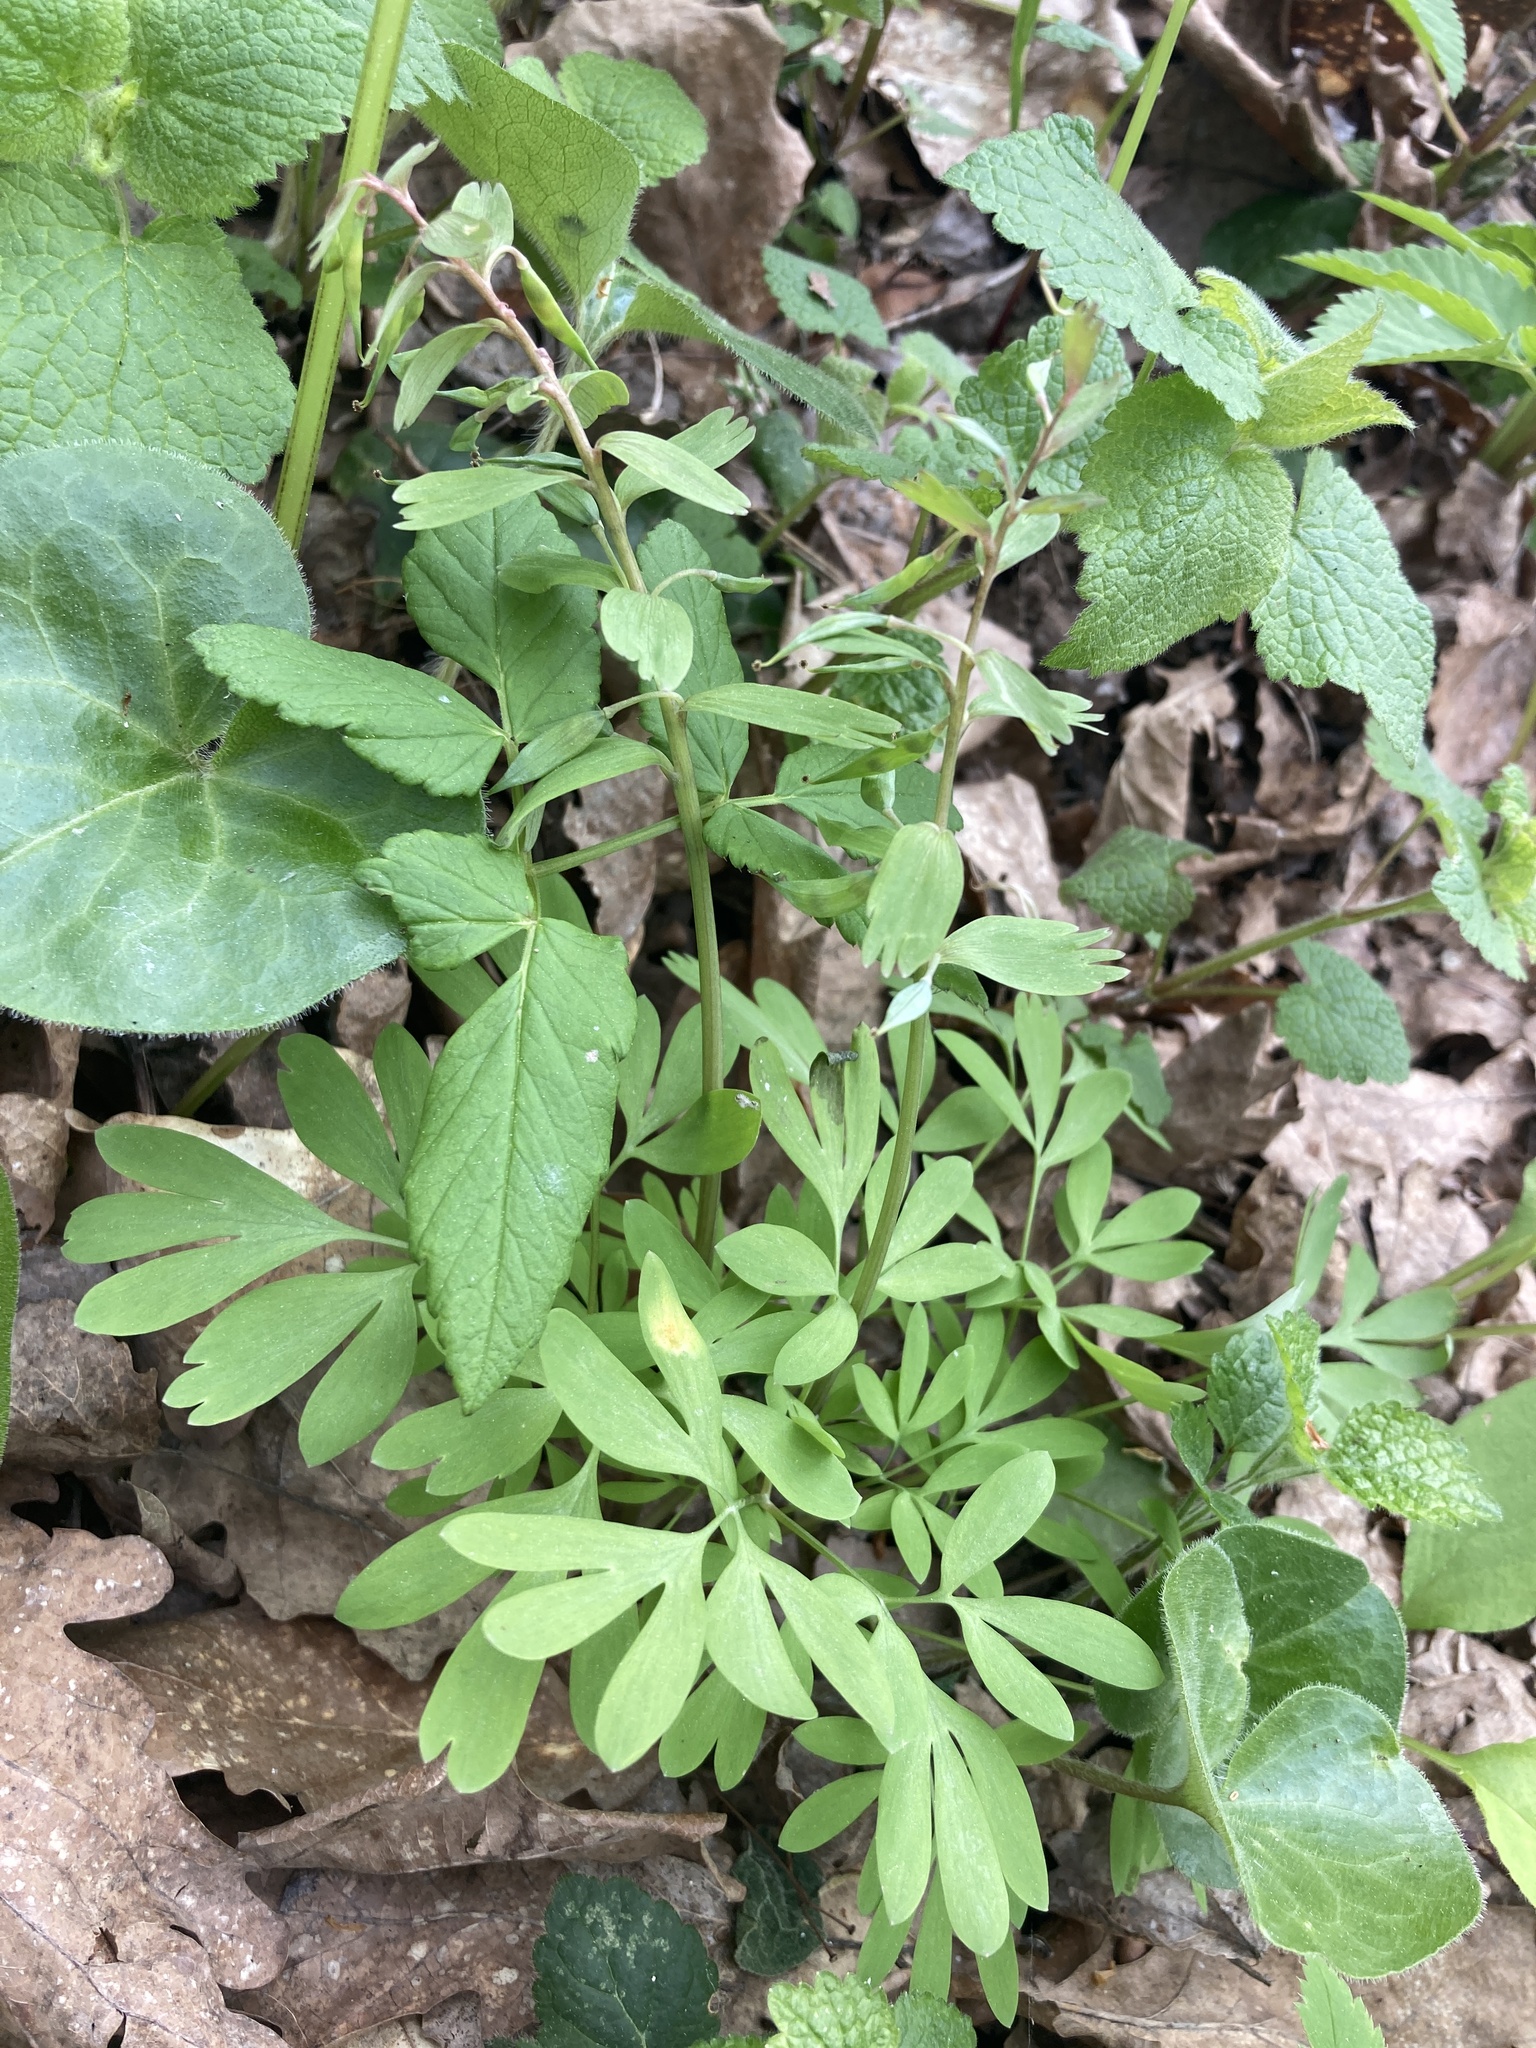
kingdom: Plantae
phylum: Tracheophyta
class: Magnoliopsida
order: Ranunculales
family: Papaveraceae
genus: Corydalis
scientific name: Corydalis solida
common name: Bird-in-a-bush
